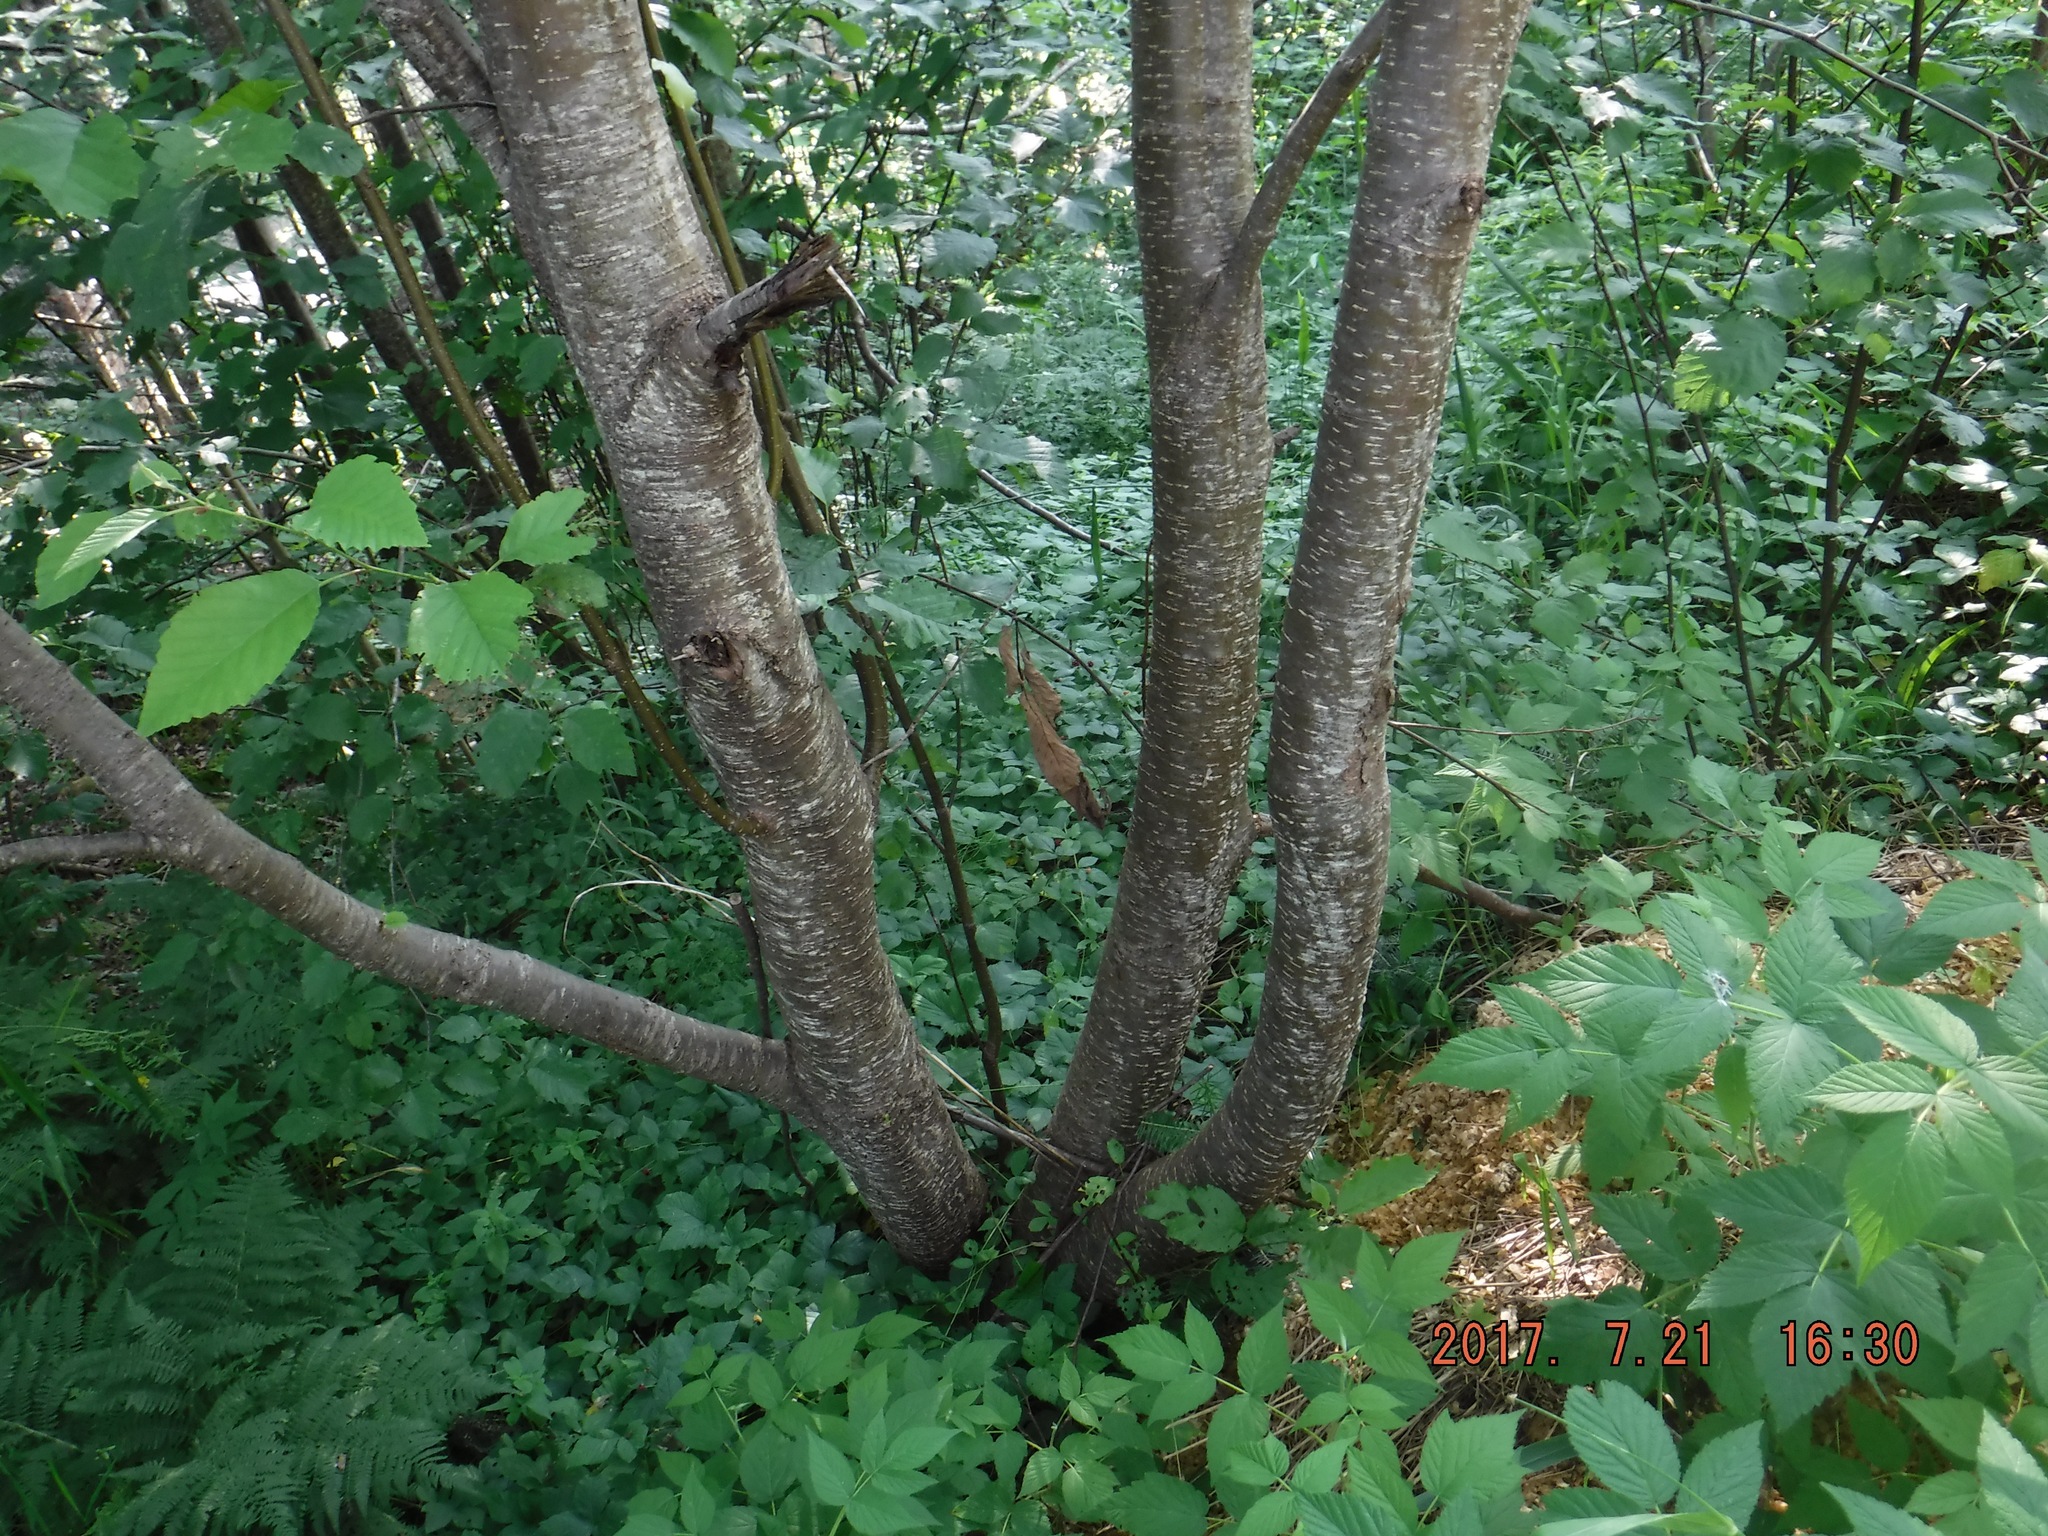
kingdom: Plantae
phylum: Tracheophyta
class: Magnoliopsida
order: Fagales
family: Betulaceae
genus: Alnus
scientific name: Alnus incana
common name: Grey alder
